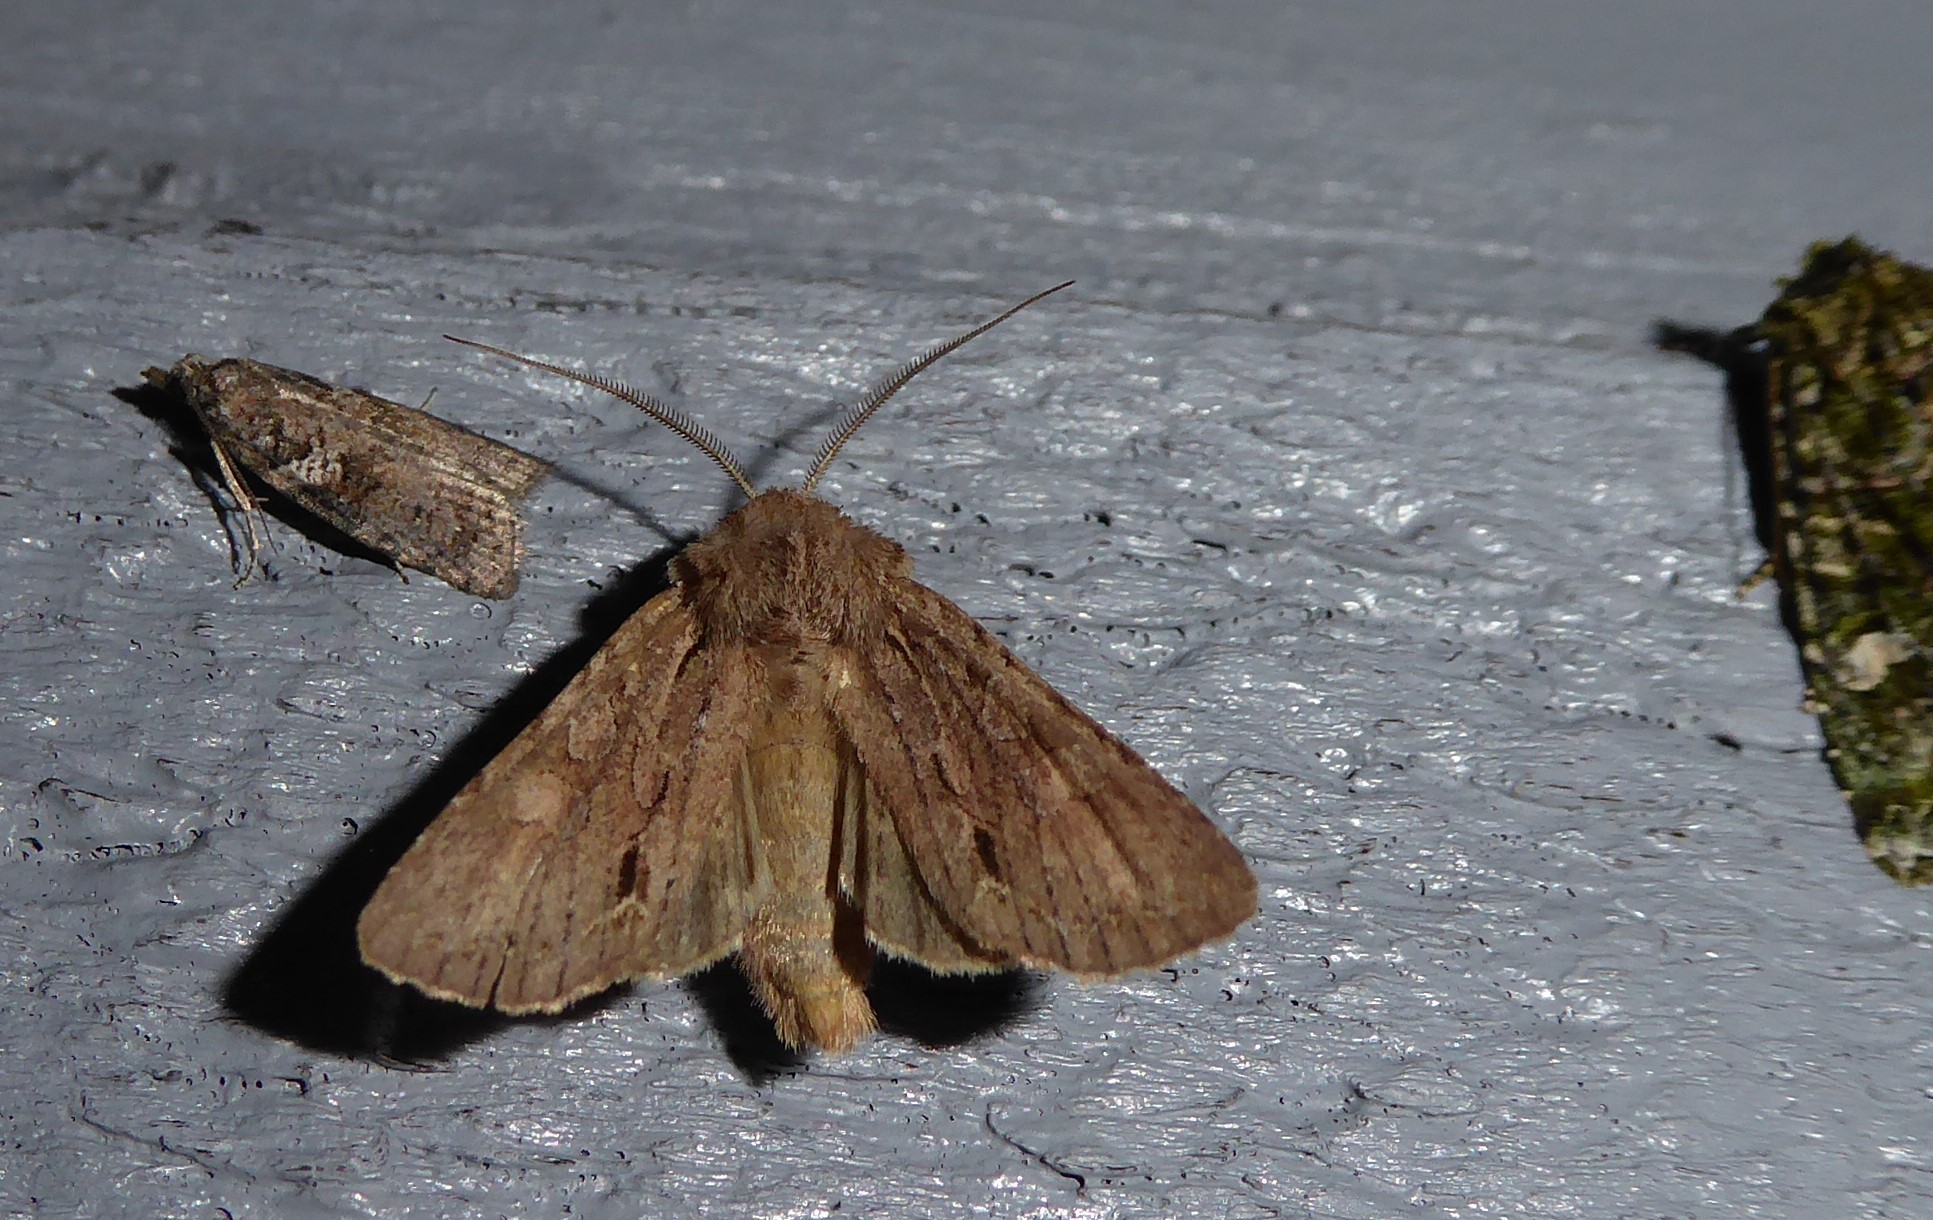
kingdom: Animalia
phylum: Arthropoda
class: Insecta
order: Lepidoptera
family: Noctuidae
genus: Ichneutica
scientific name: Ichneutica
